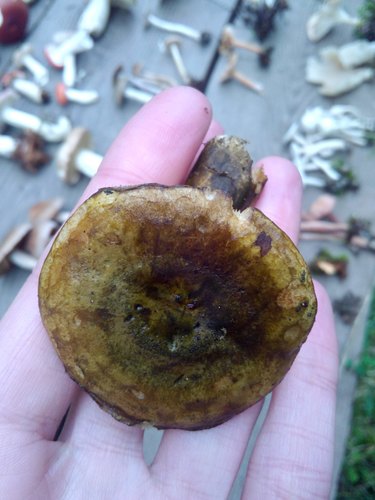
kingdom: Fungi
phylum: Basidiomycota
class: Agaricomycetes
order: Russulales
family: Russulaceae
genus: Lactarius
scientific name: Lactarius turpis
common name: Ugly milk-cap
